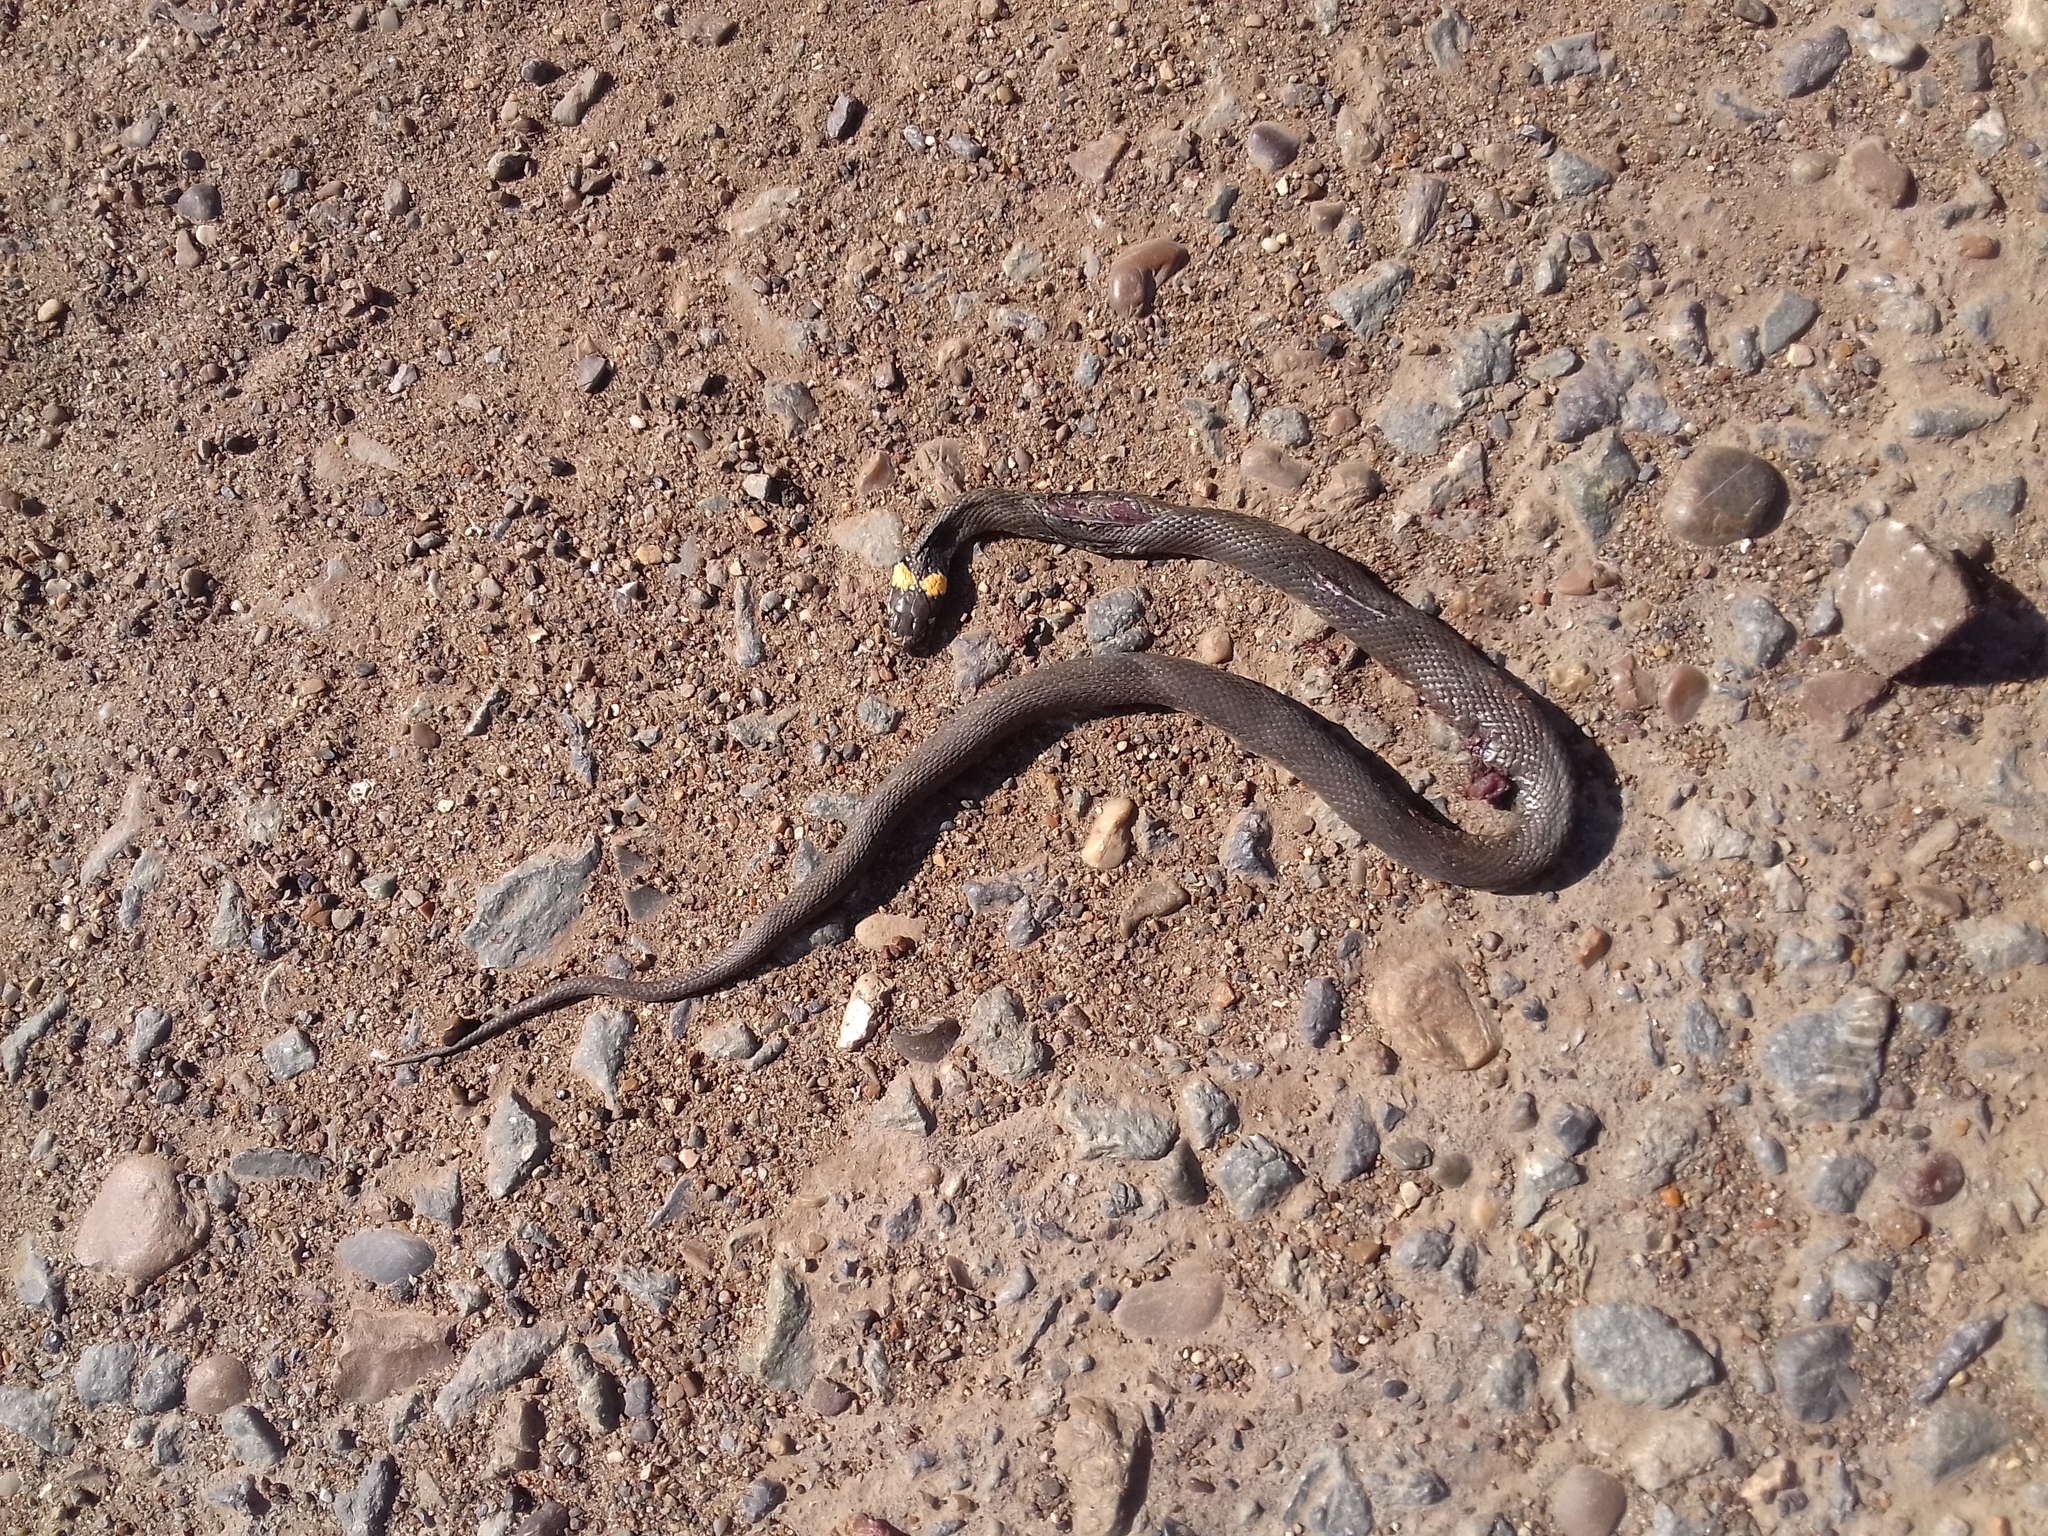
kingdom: Animalia
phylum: Chordata
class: Squamata
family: Colubridae
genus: Natrix
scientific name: Natrix natrix
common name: Grass snake
